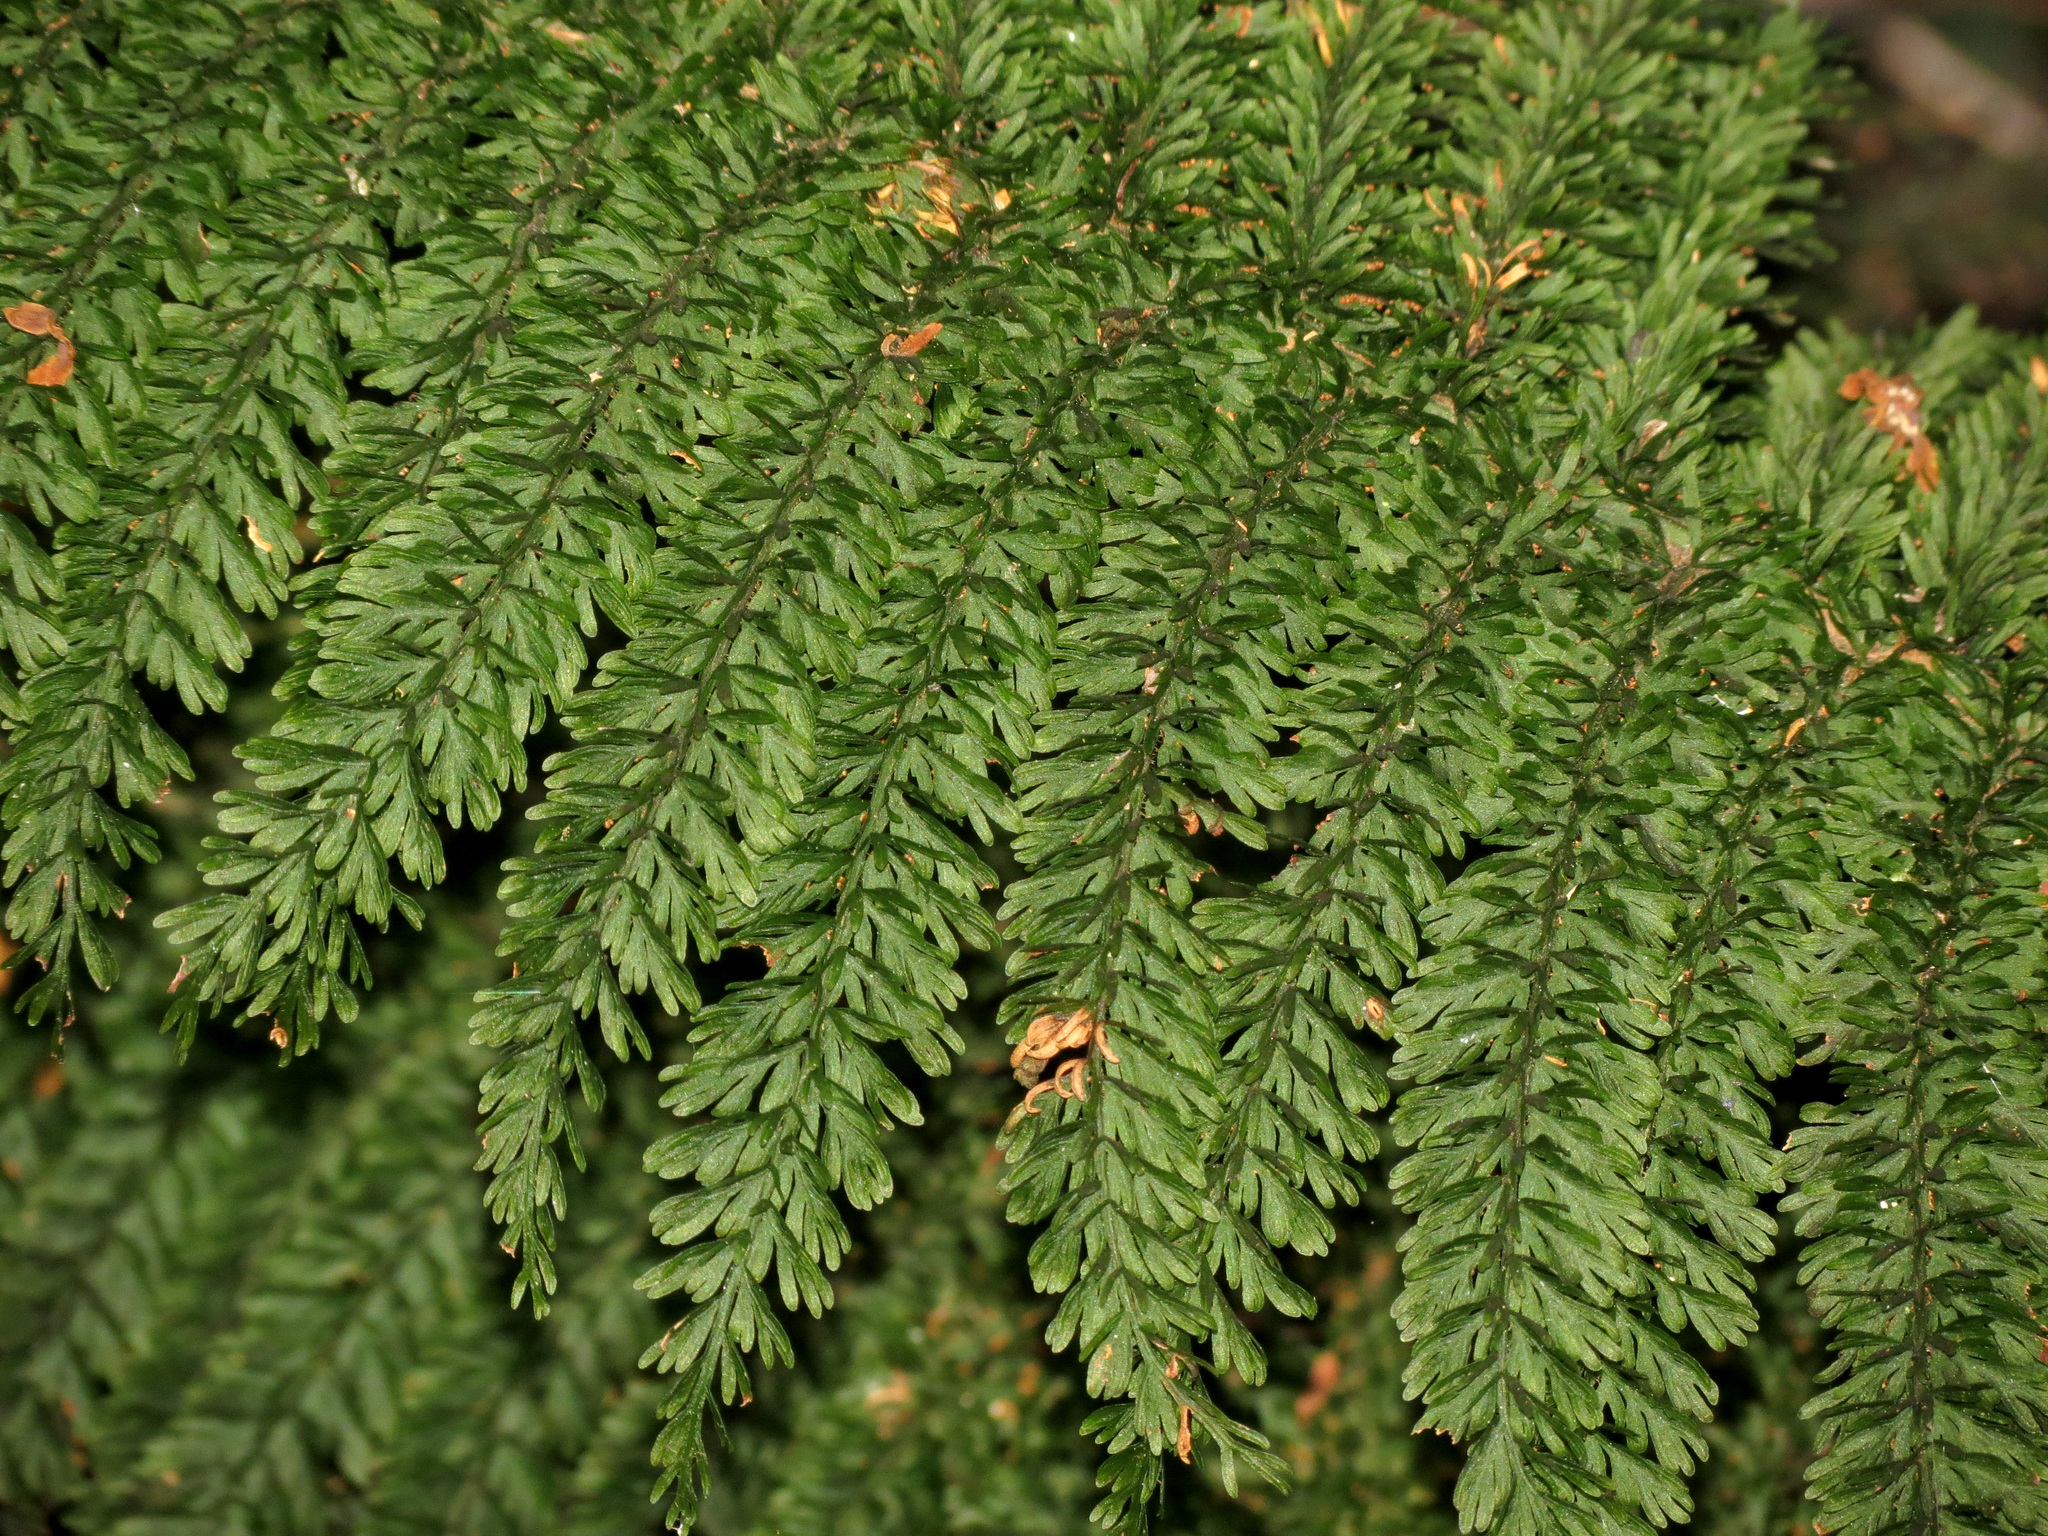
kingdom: Plantae
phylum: Tracheophyta
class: Polypodiopsida
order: Osmundales
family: Osmundaceae
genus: Leptopteris
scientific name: Leptopteris superba
